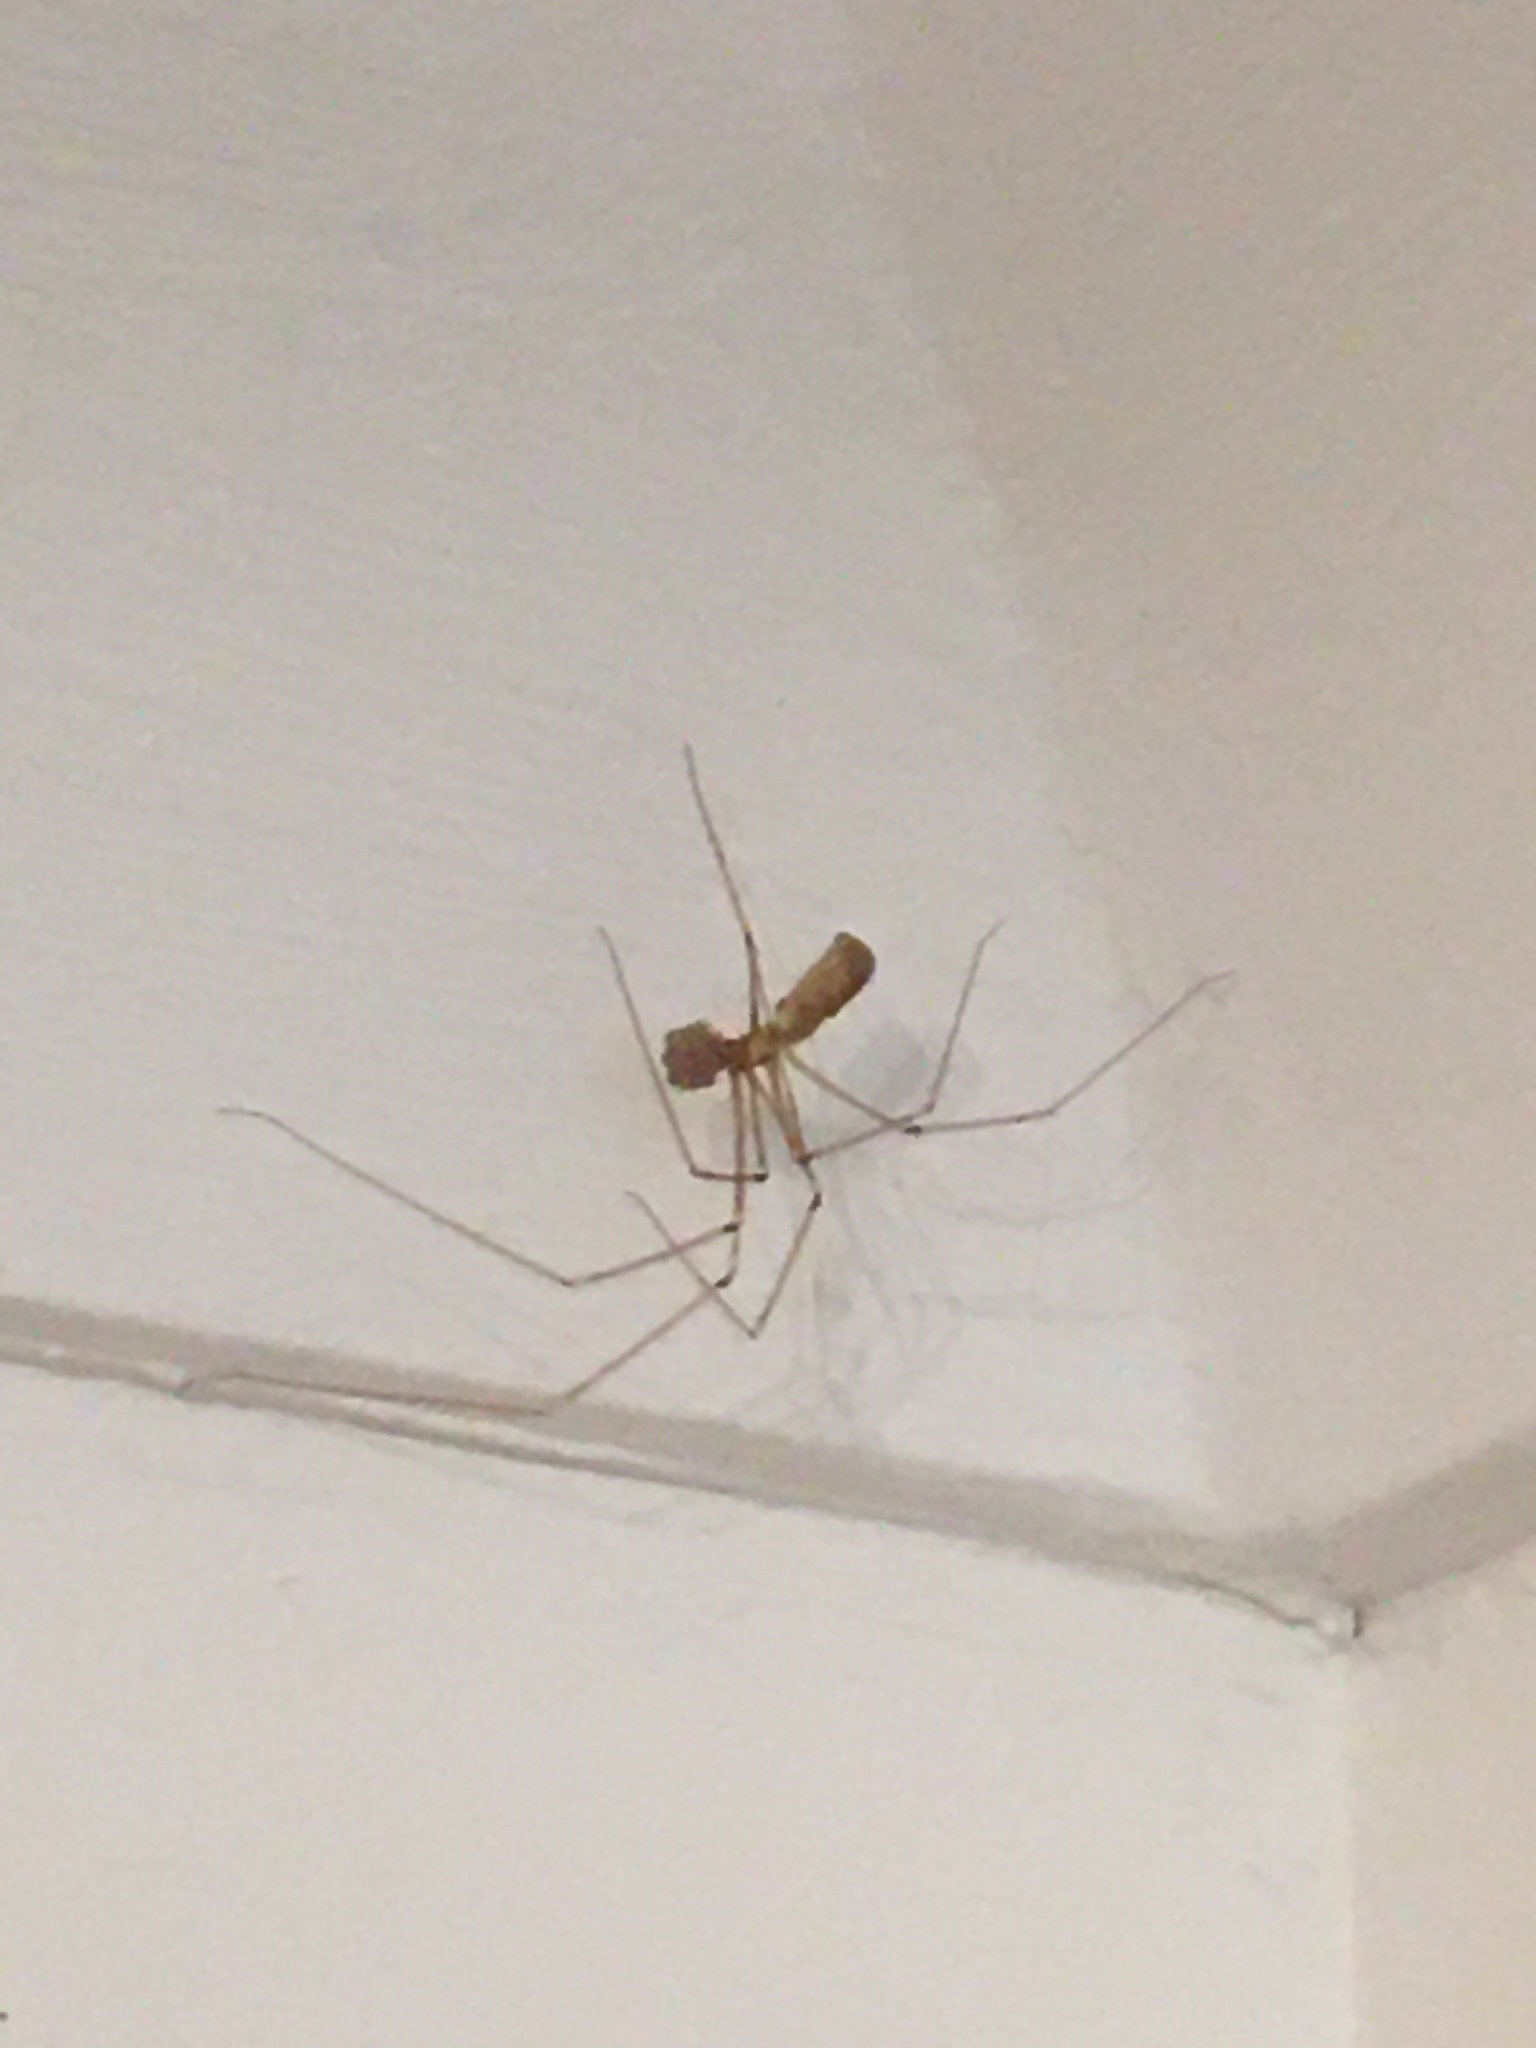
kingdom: Animalia
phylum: Arthropoda
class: Arachnida
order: Araneae
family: Pholcidae
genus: Pholcus
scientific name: Pholcus phalangioides
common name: Longbodied cellar spider
